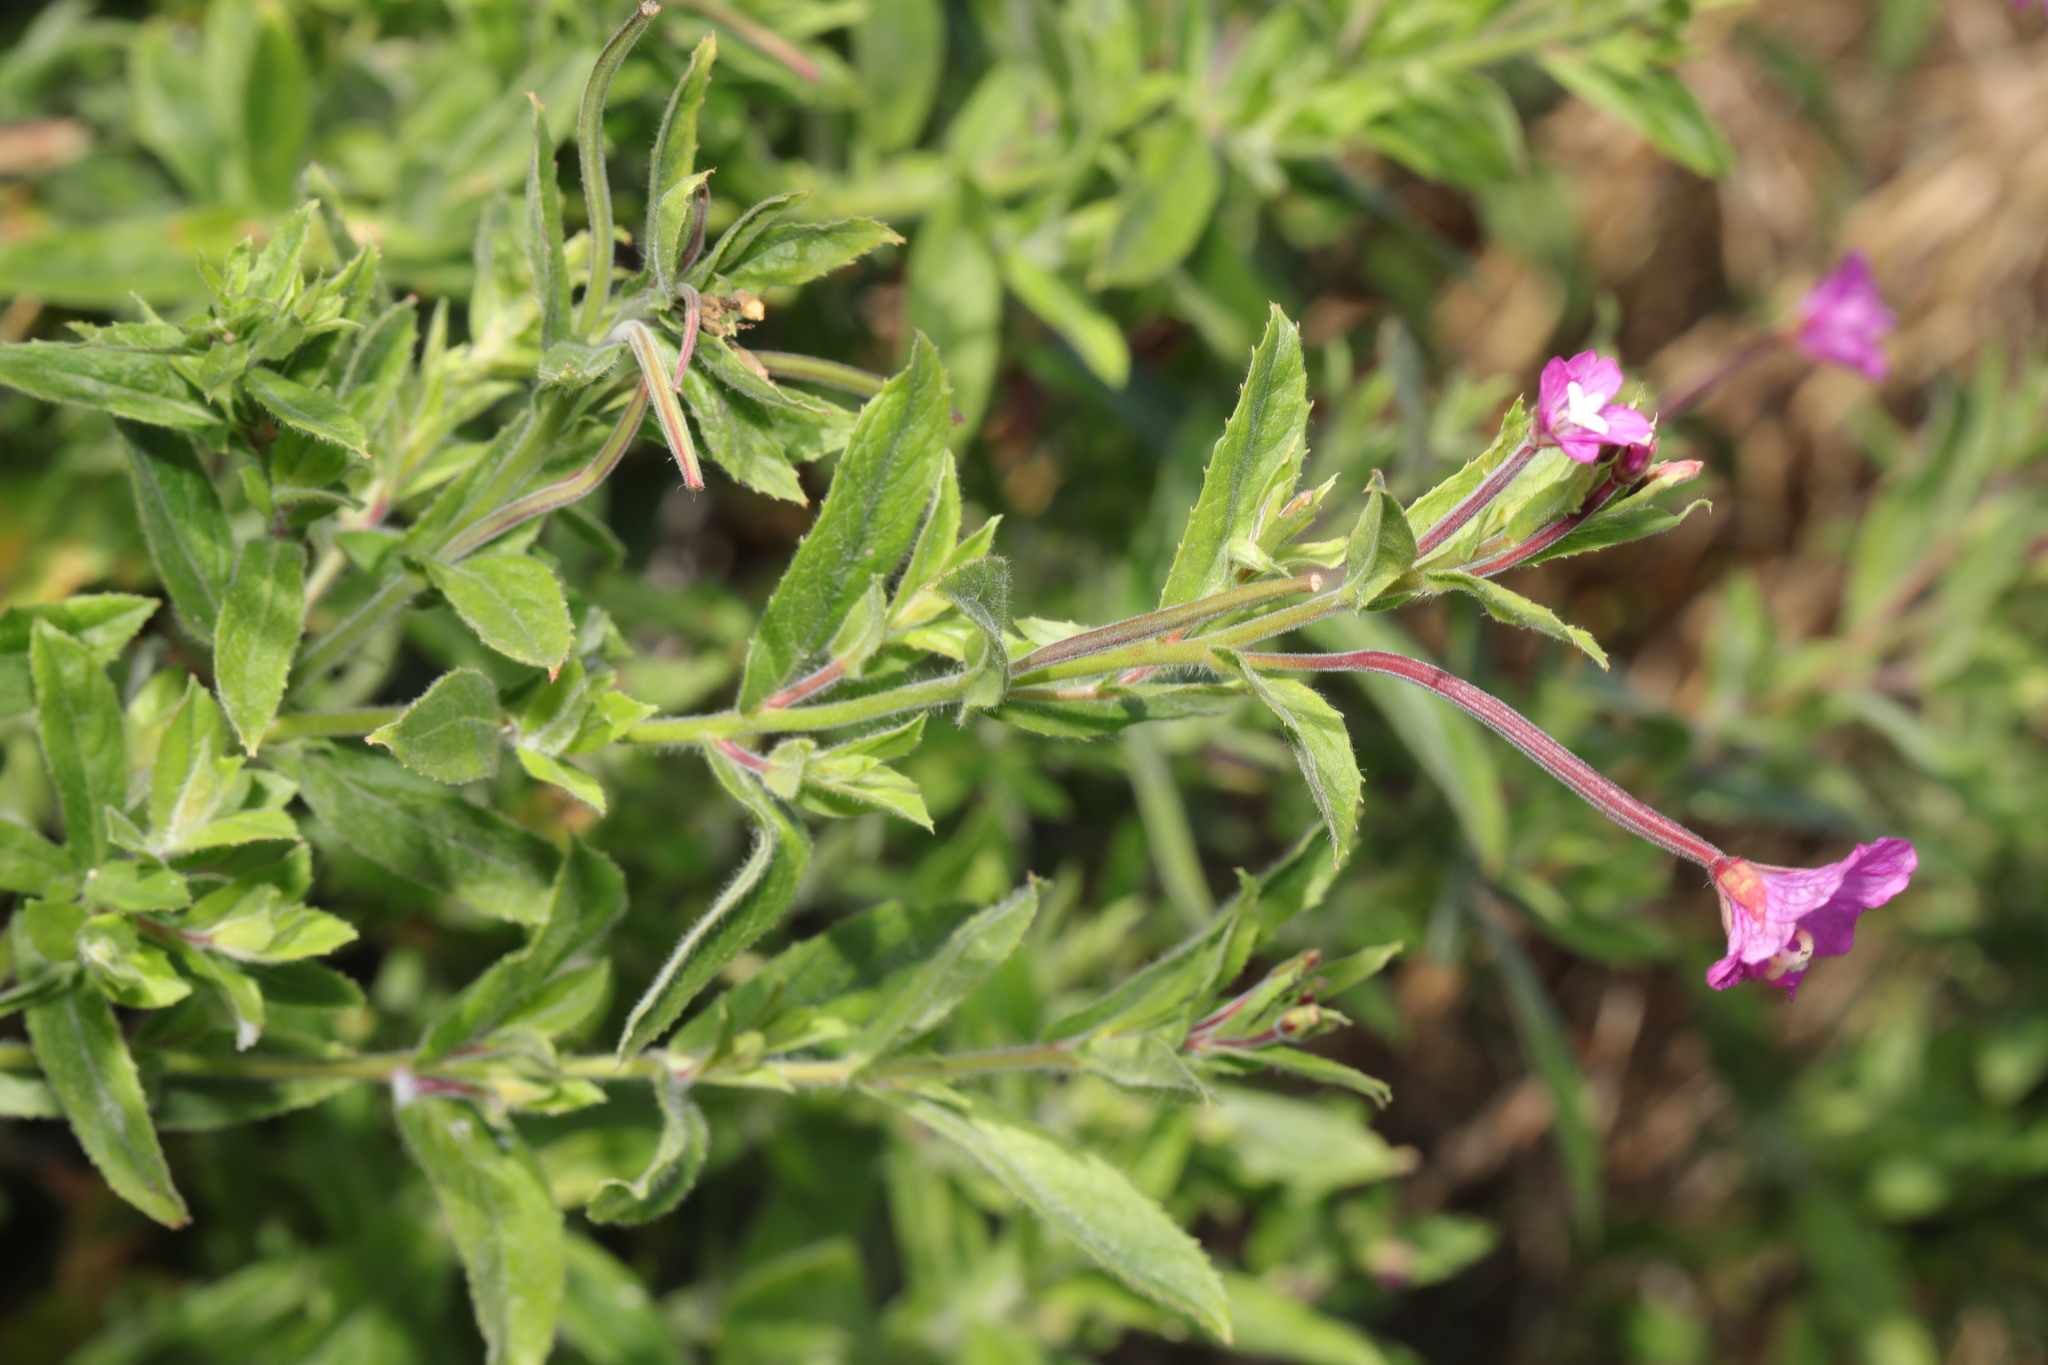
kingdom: Plantae
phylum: Tracheophyta
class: Magnoliopsida
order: Myrtales
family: Onagraceae
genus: Epilobium
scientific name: Epilobium hirsutum
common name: Great willowherb
